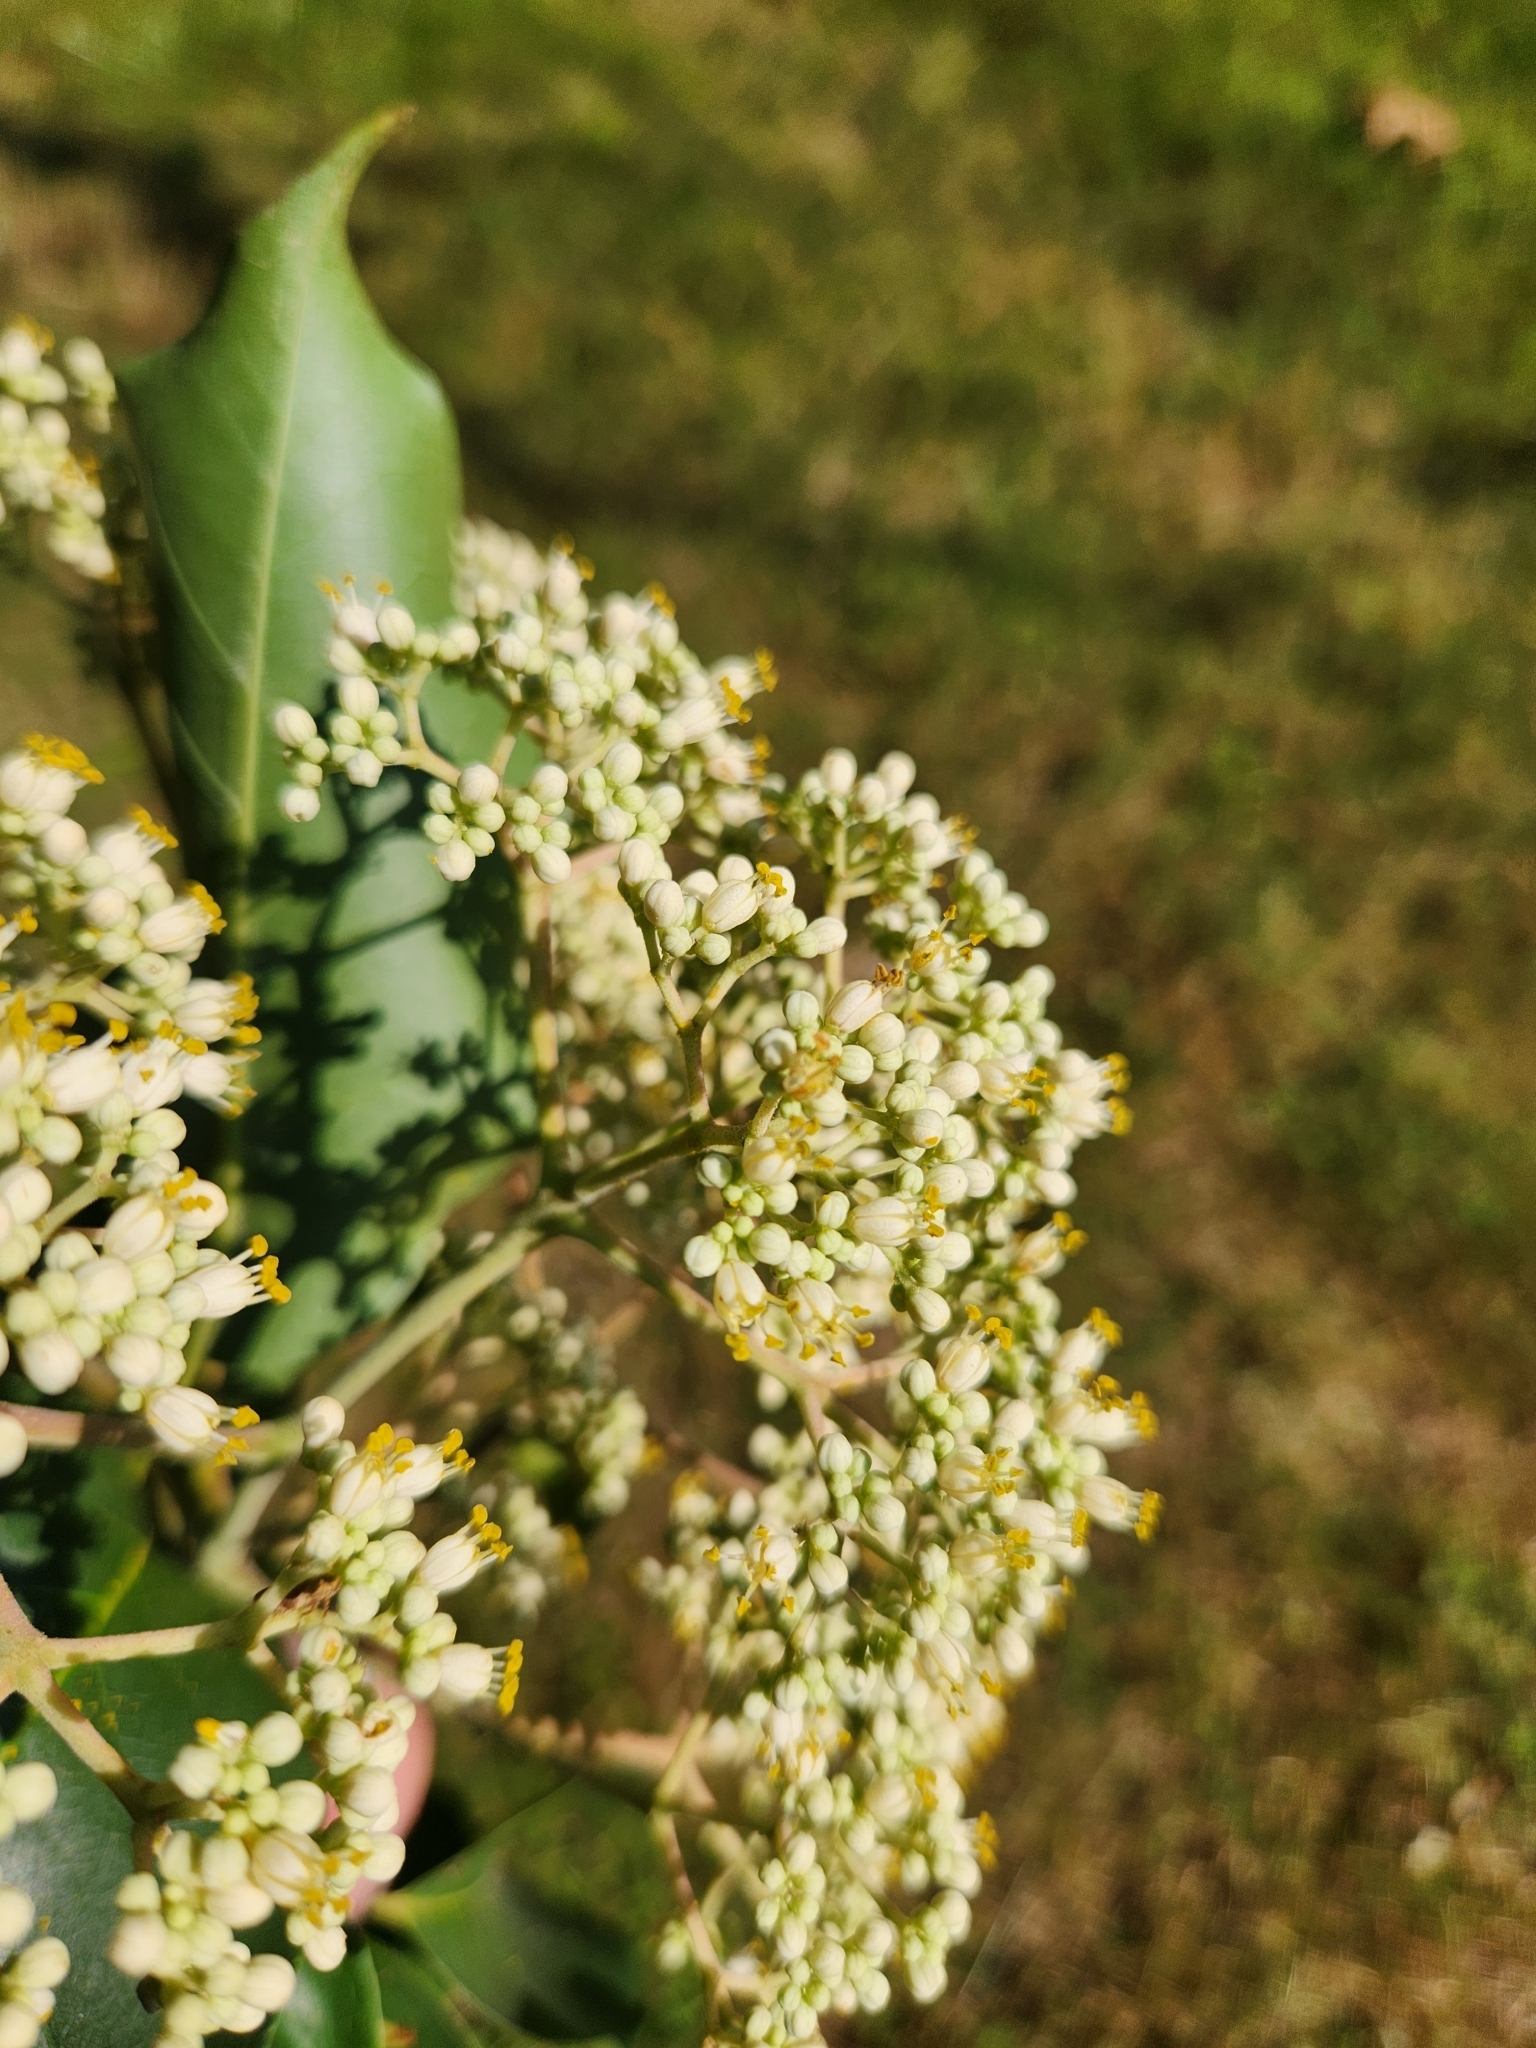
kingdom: Plantae
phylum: Tracheophyta
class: Magnoliopsida
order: Sapindales
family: Rutaceae
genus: Tetradium
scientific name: Tetradium daniellii
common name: Bee-bee tree
